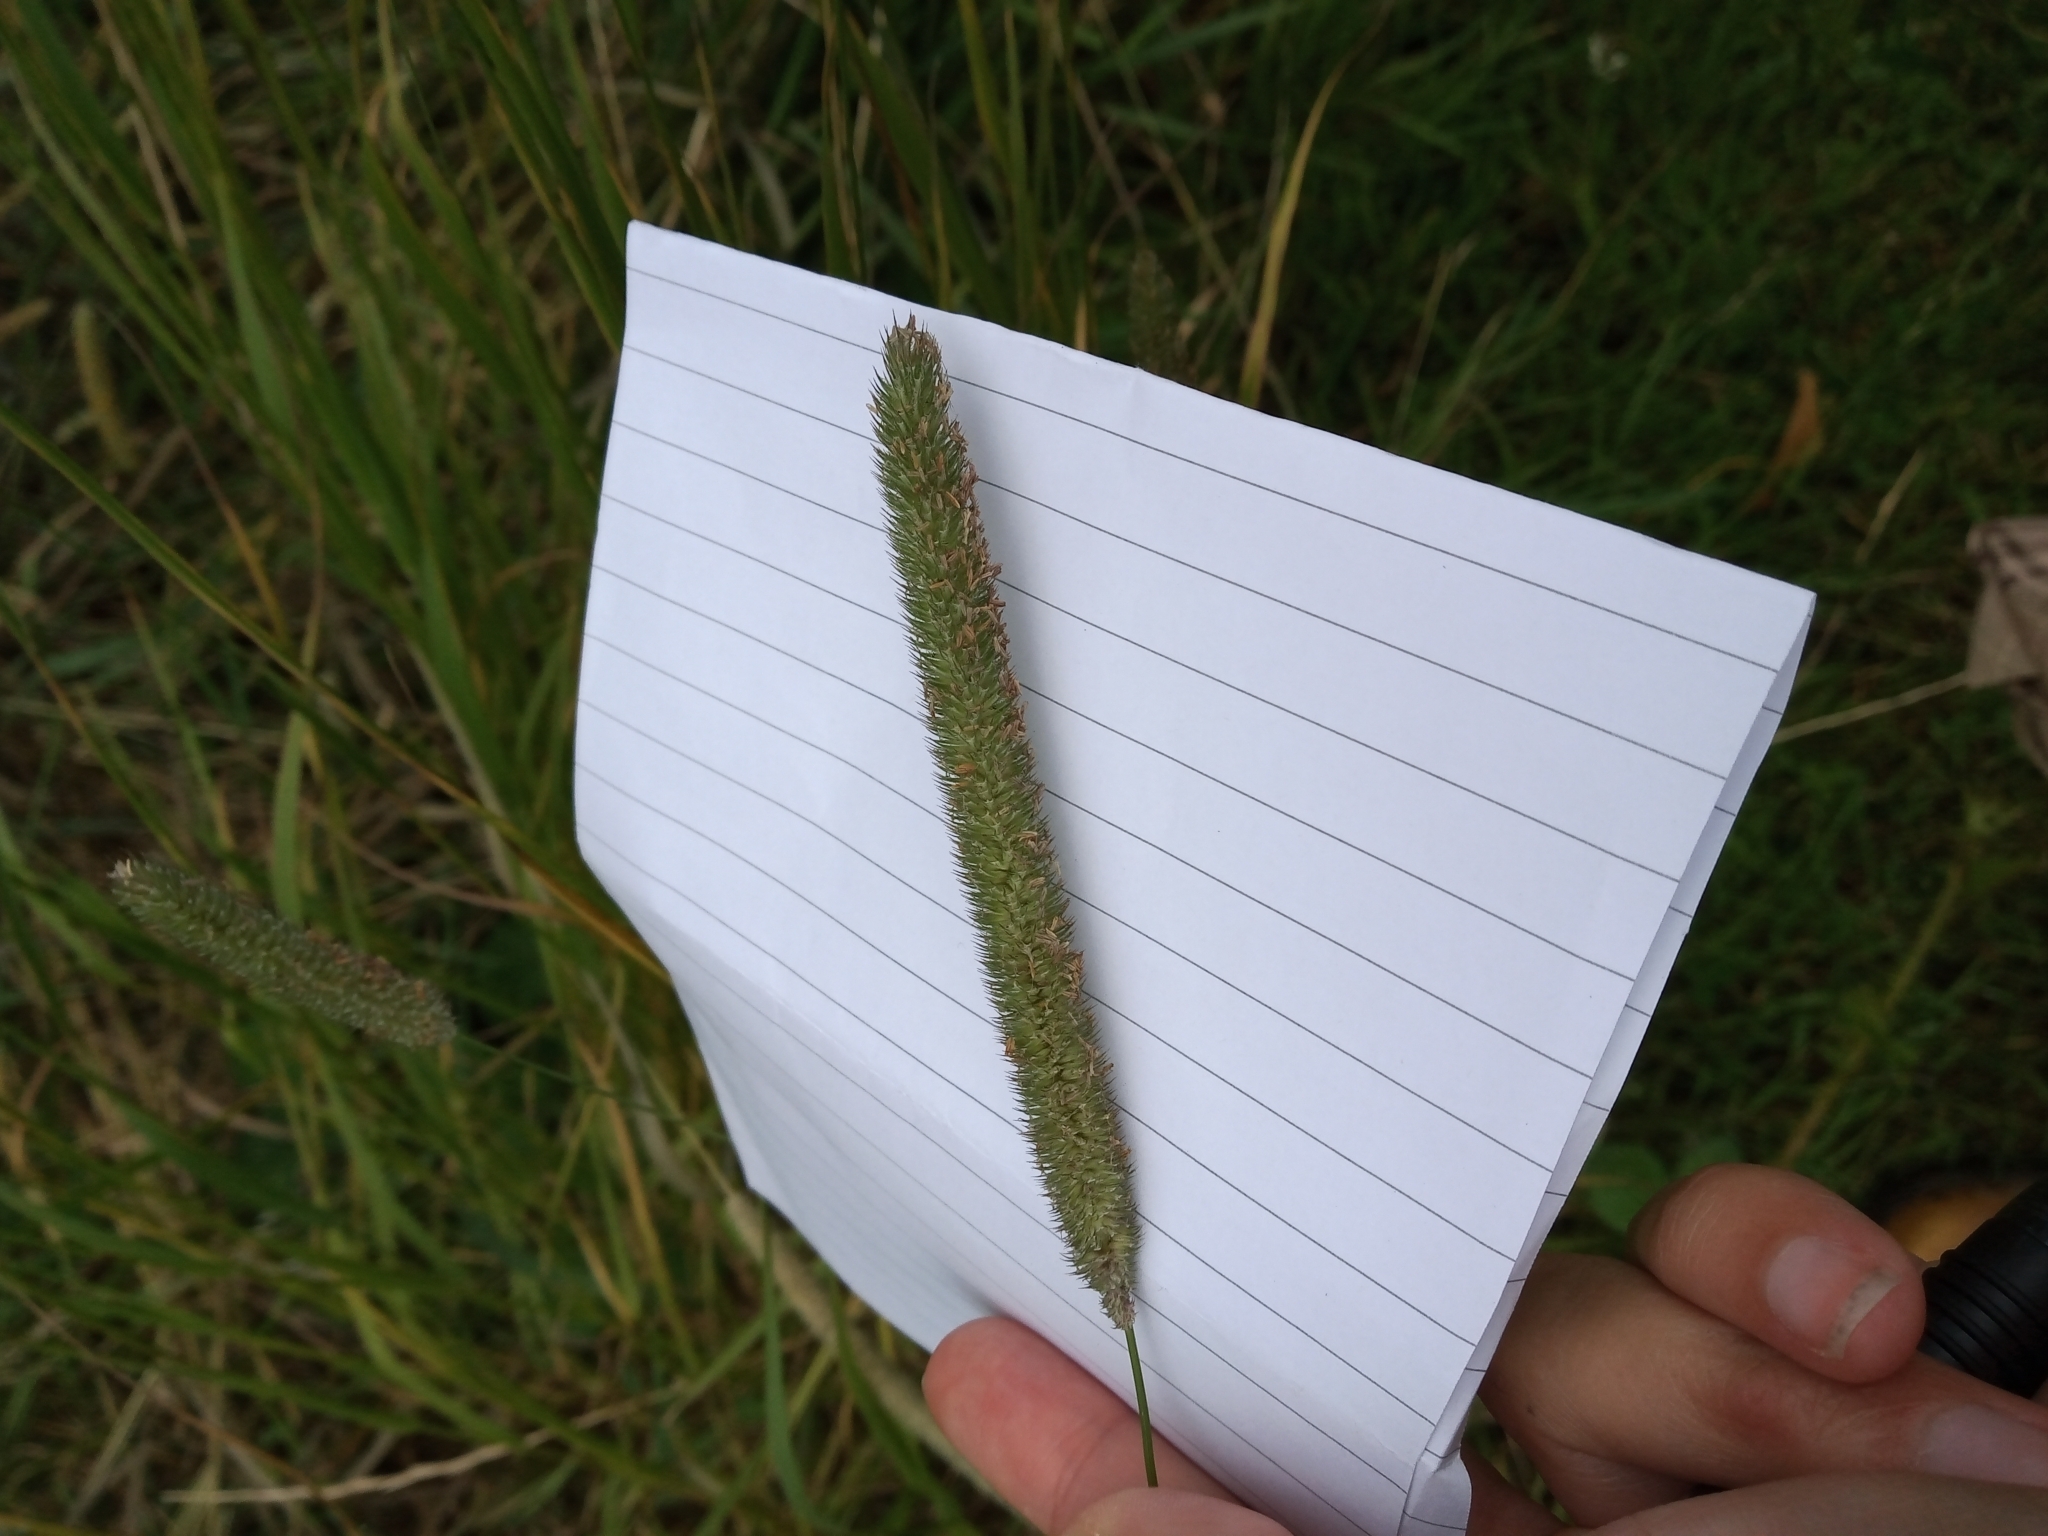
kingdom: Plantae
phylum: Tracheophyta
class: Liliopsida
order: Poales
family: Poaceae
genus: Phleum
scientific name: Phleum pratense
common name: Timothy grass
